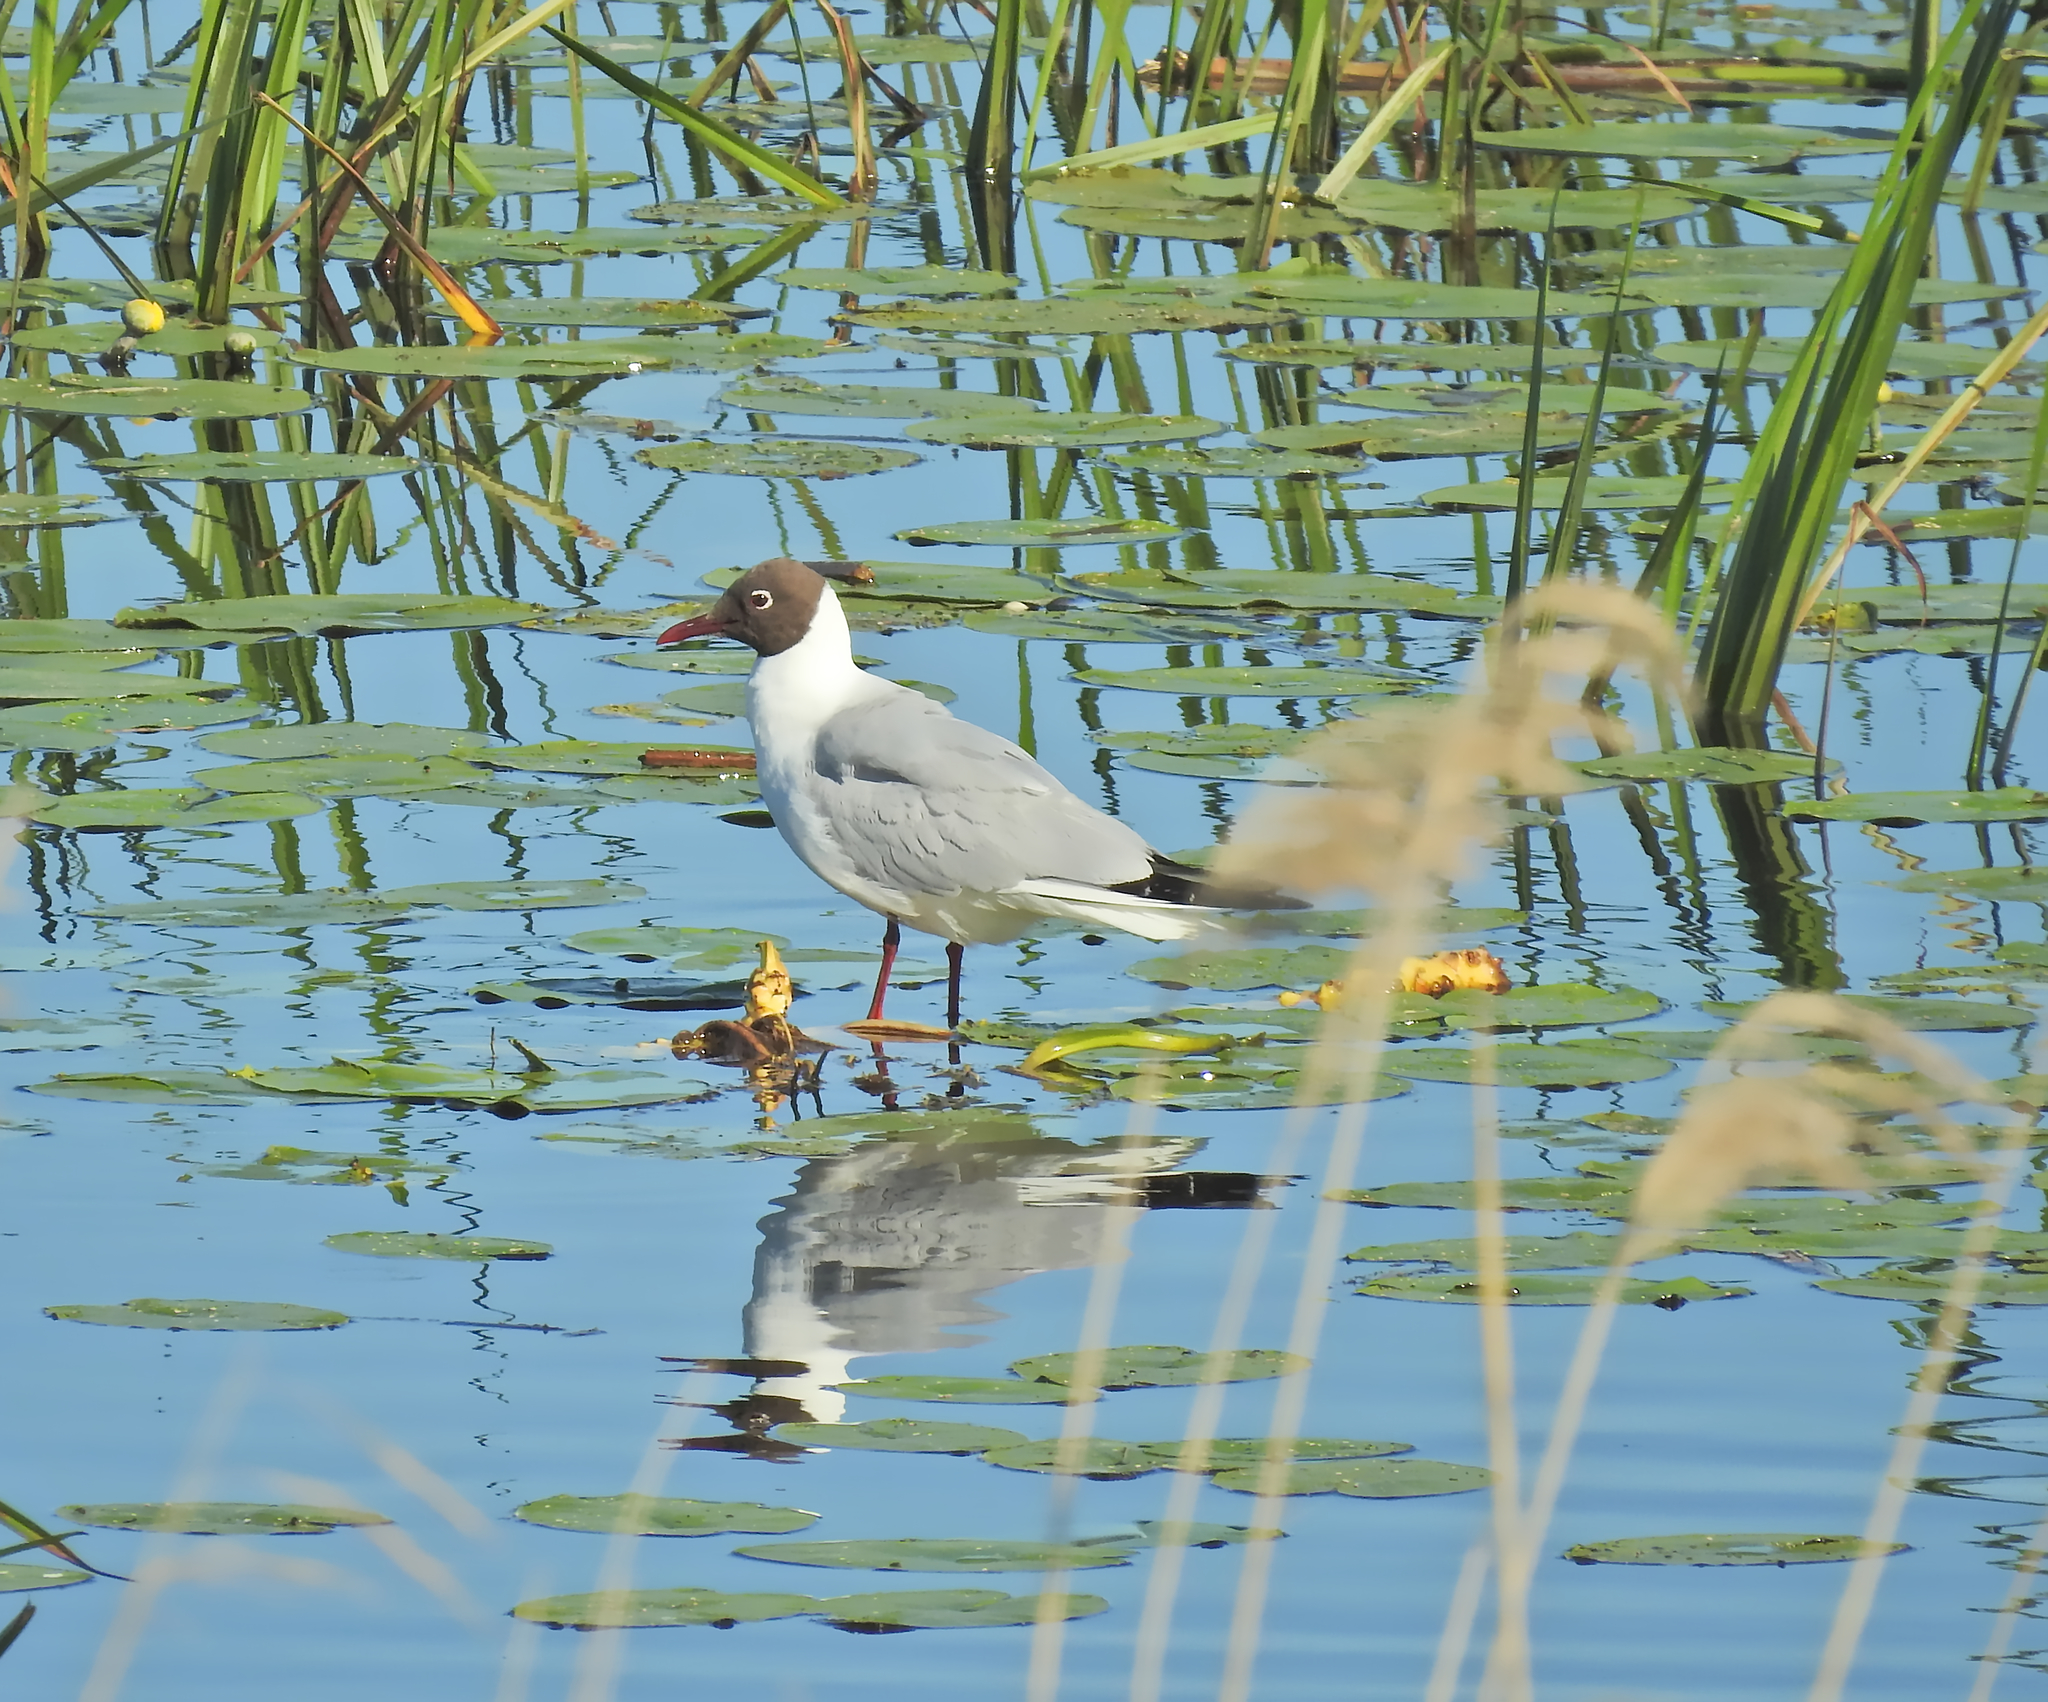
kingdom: Animalia
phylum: Chordata
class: Aves
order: Charadriiformes
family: Laridae
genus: Chroicocephalus
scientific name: Chroicocephalus ridibundus
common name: Black-headed gull
